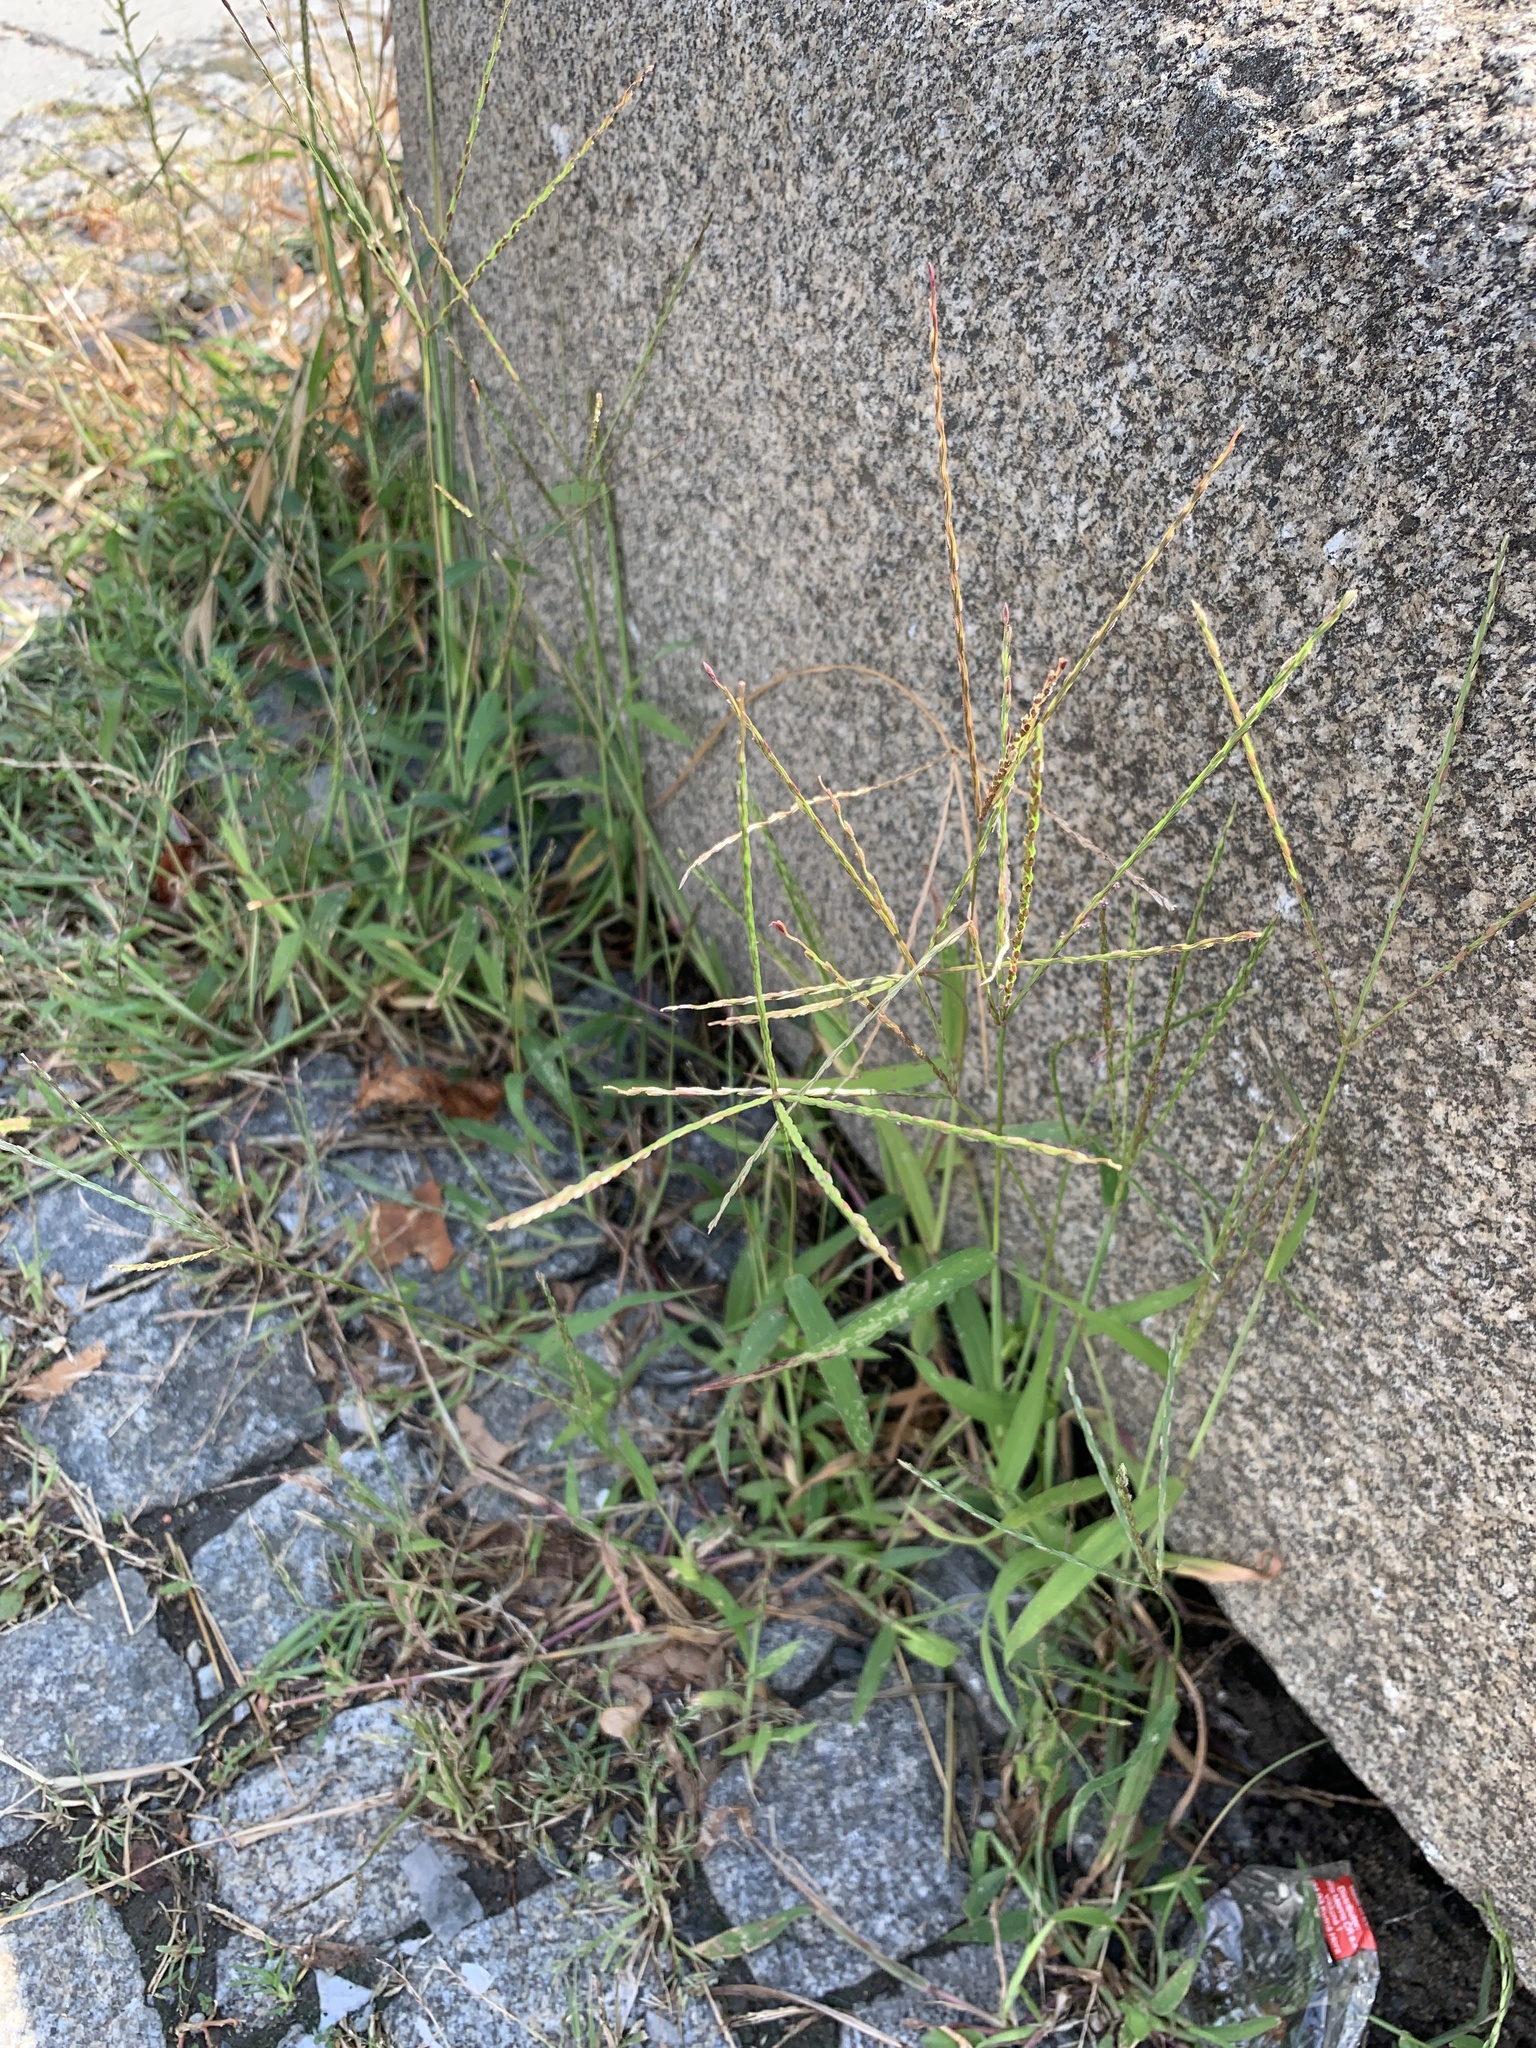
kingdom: Plantae
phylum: Tracheophyta
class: Liliopsida
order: Poales
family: Poaceae
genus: Digitaria
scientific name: Digitaria sanguinalis
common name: Hairy crabgrass
